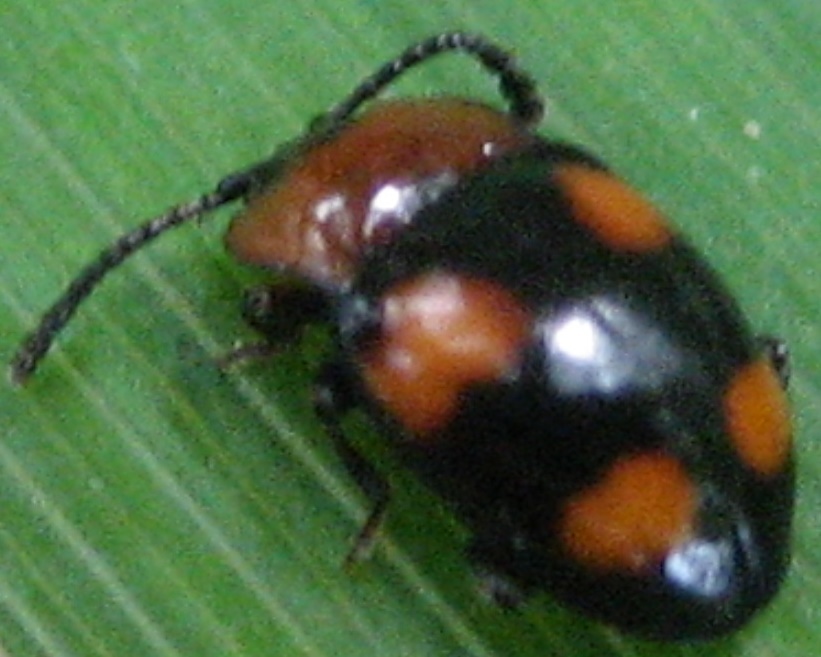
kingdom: Animalia
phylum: Arthropoda
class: Insecta
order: Coleoptera
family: Endomychidae
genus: Mycetina
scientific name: Mycetina perpulchra
